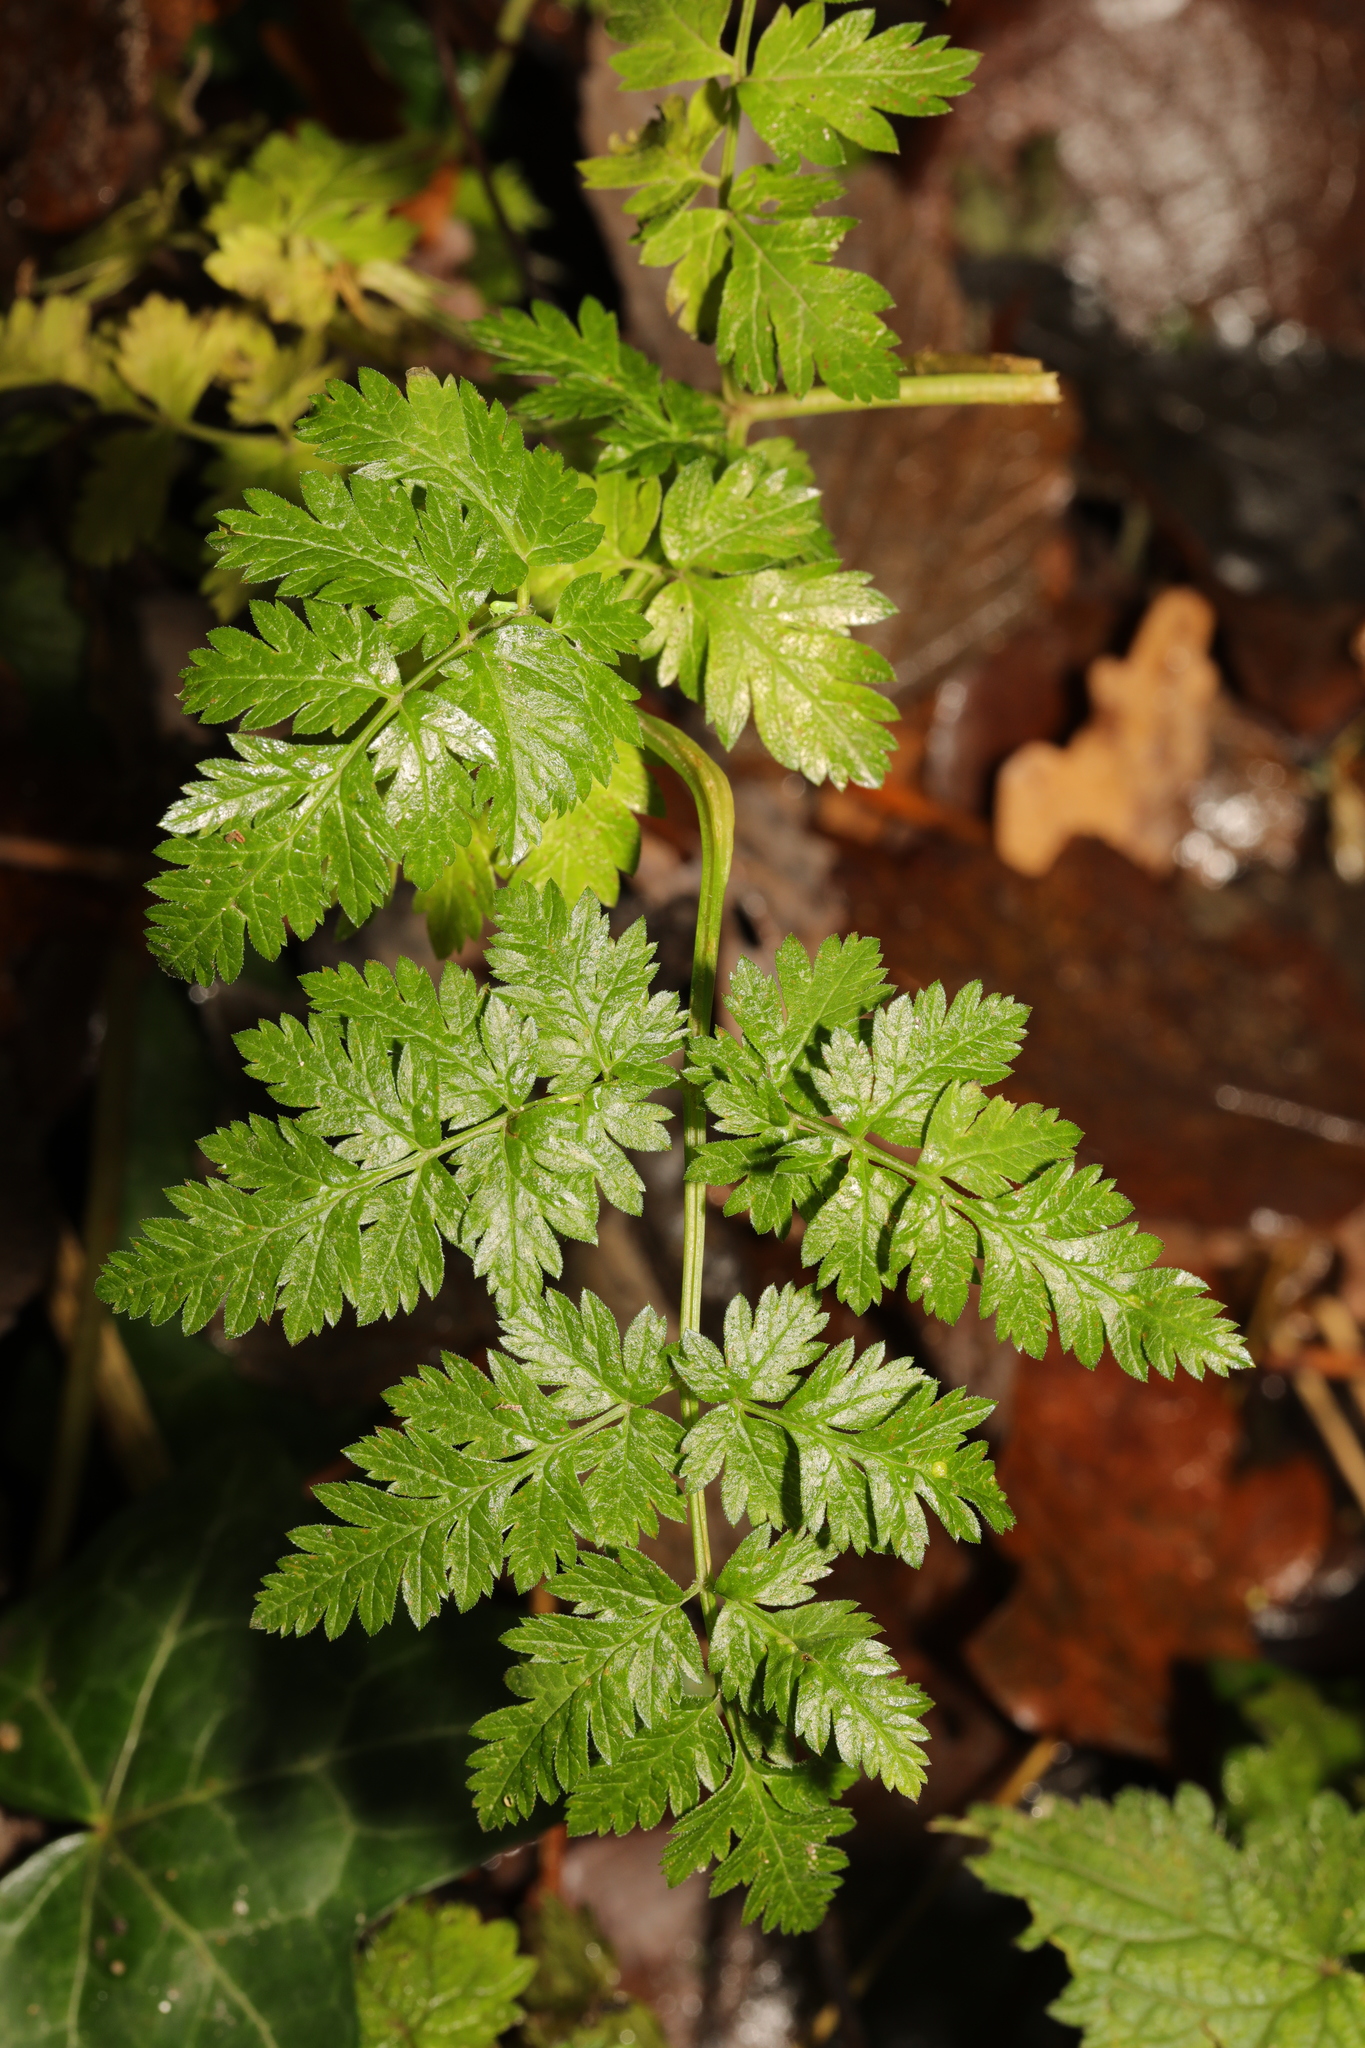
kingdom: Plantae
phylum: Tracheophyta
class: Magnoliopsida
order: Apiales
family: Apiaceae
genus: Anthriscus
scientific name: Anthriscus sylvestris
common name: Cow parsley
